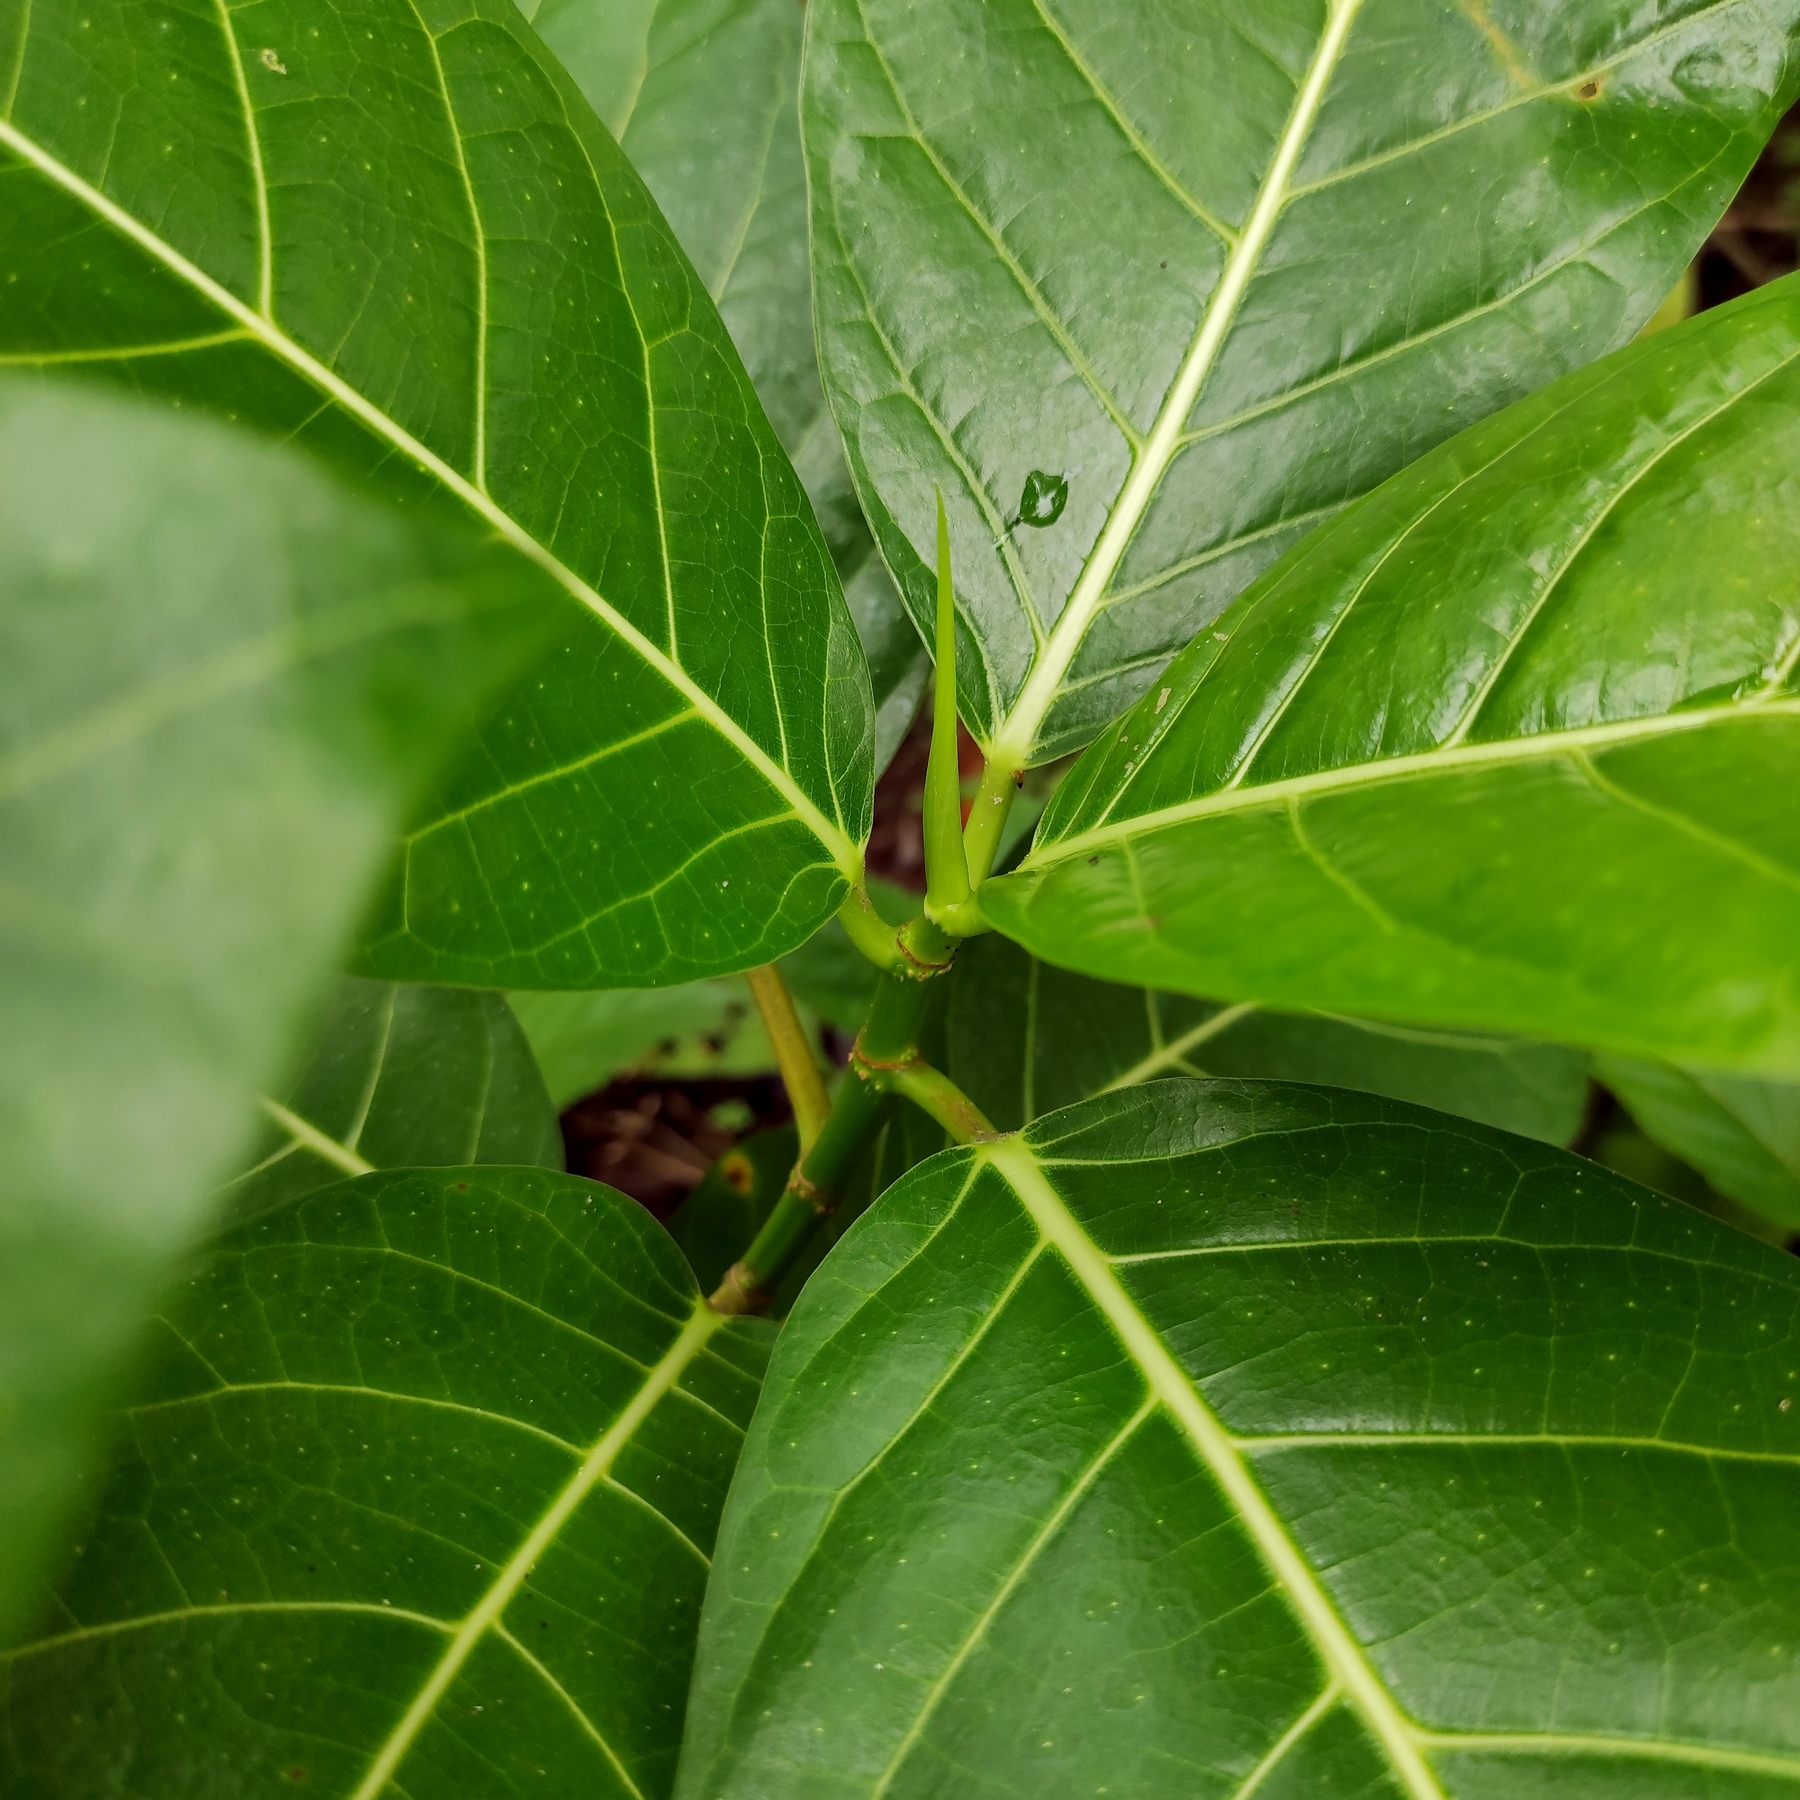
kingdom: Plantae
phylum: Tracheophyta
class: Magnoliopsida
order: Rosales
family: Moraceae
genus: Ficus
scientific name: Ficus septica
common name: Septic fig
